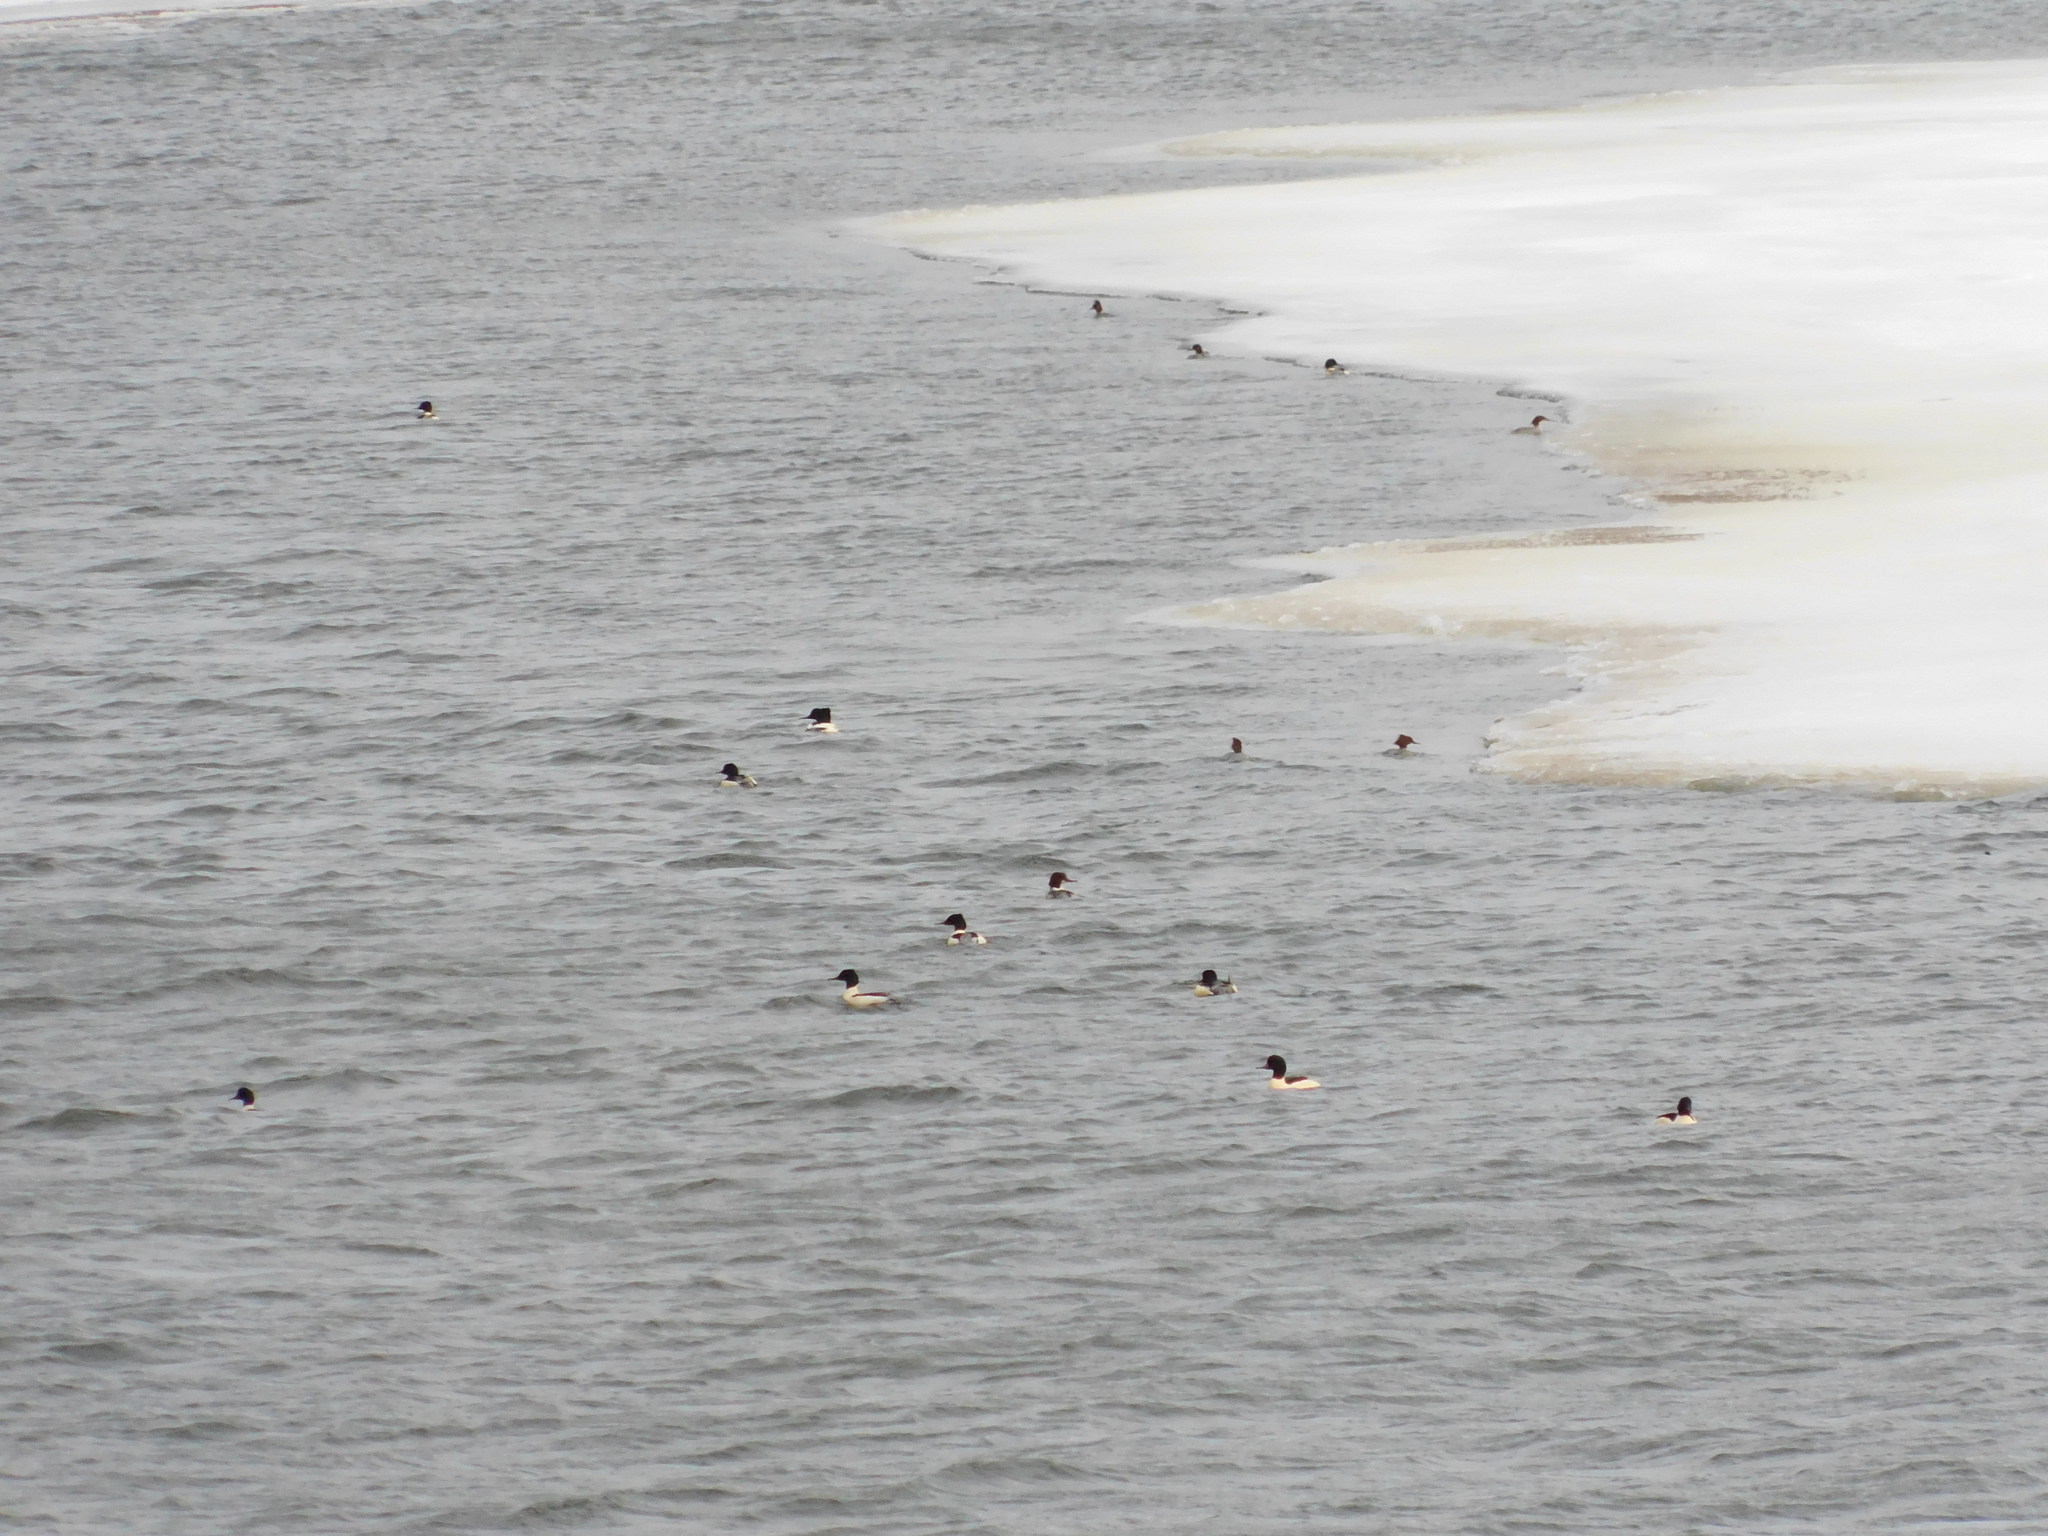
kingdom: Animalia
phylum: Chordata
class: Aves
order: Anseriformes
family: Anatidae
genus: Mergus
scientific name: Mergus merganser
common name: Common merganser
